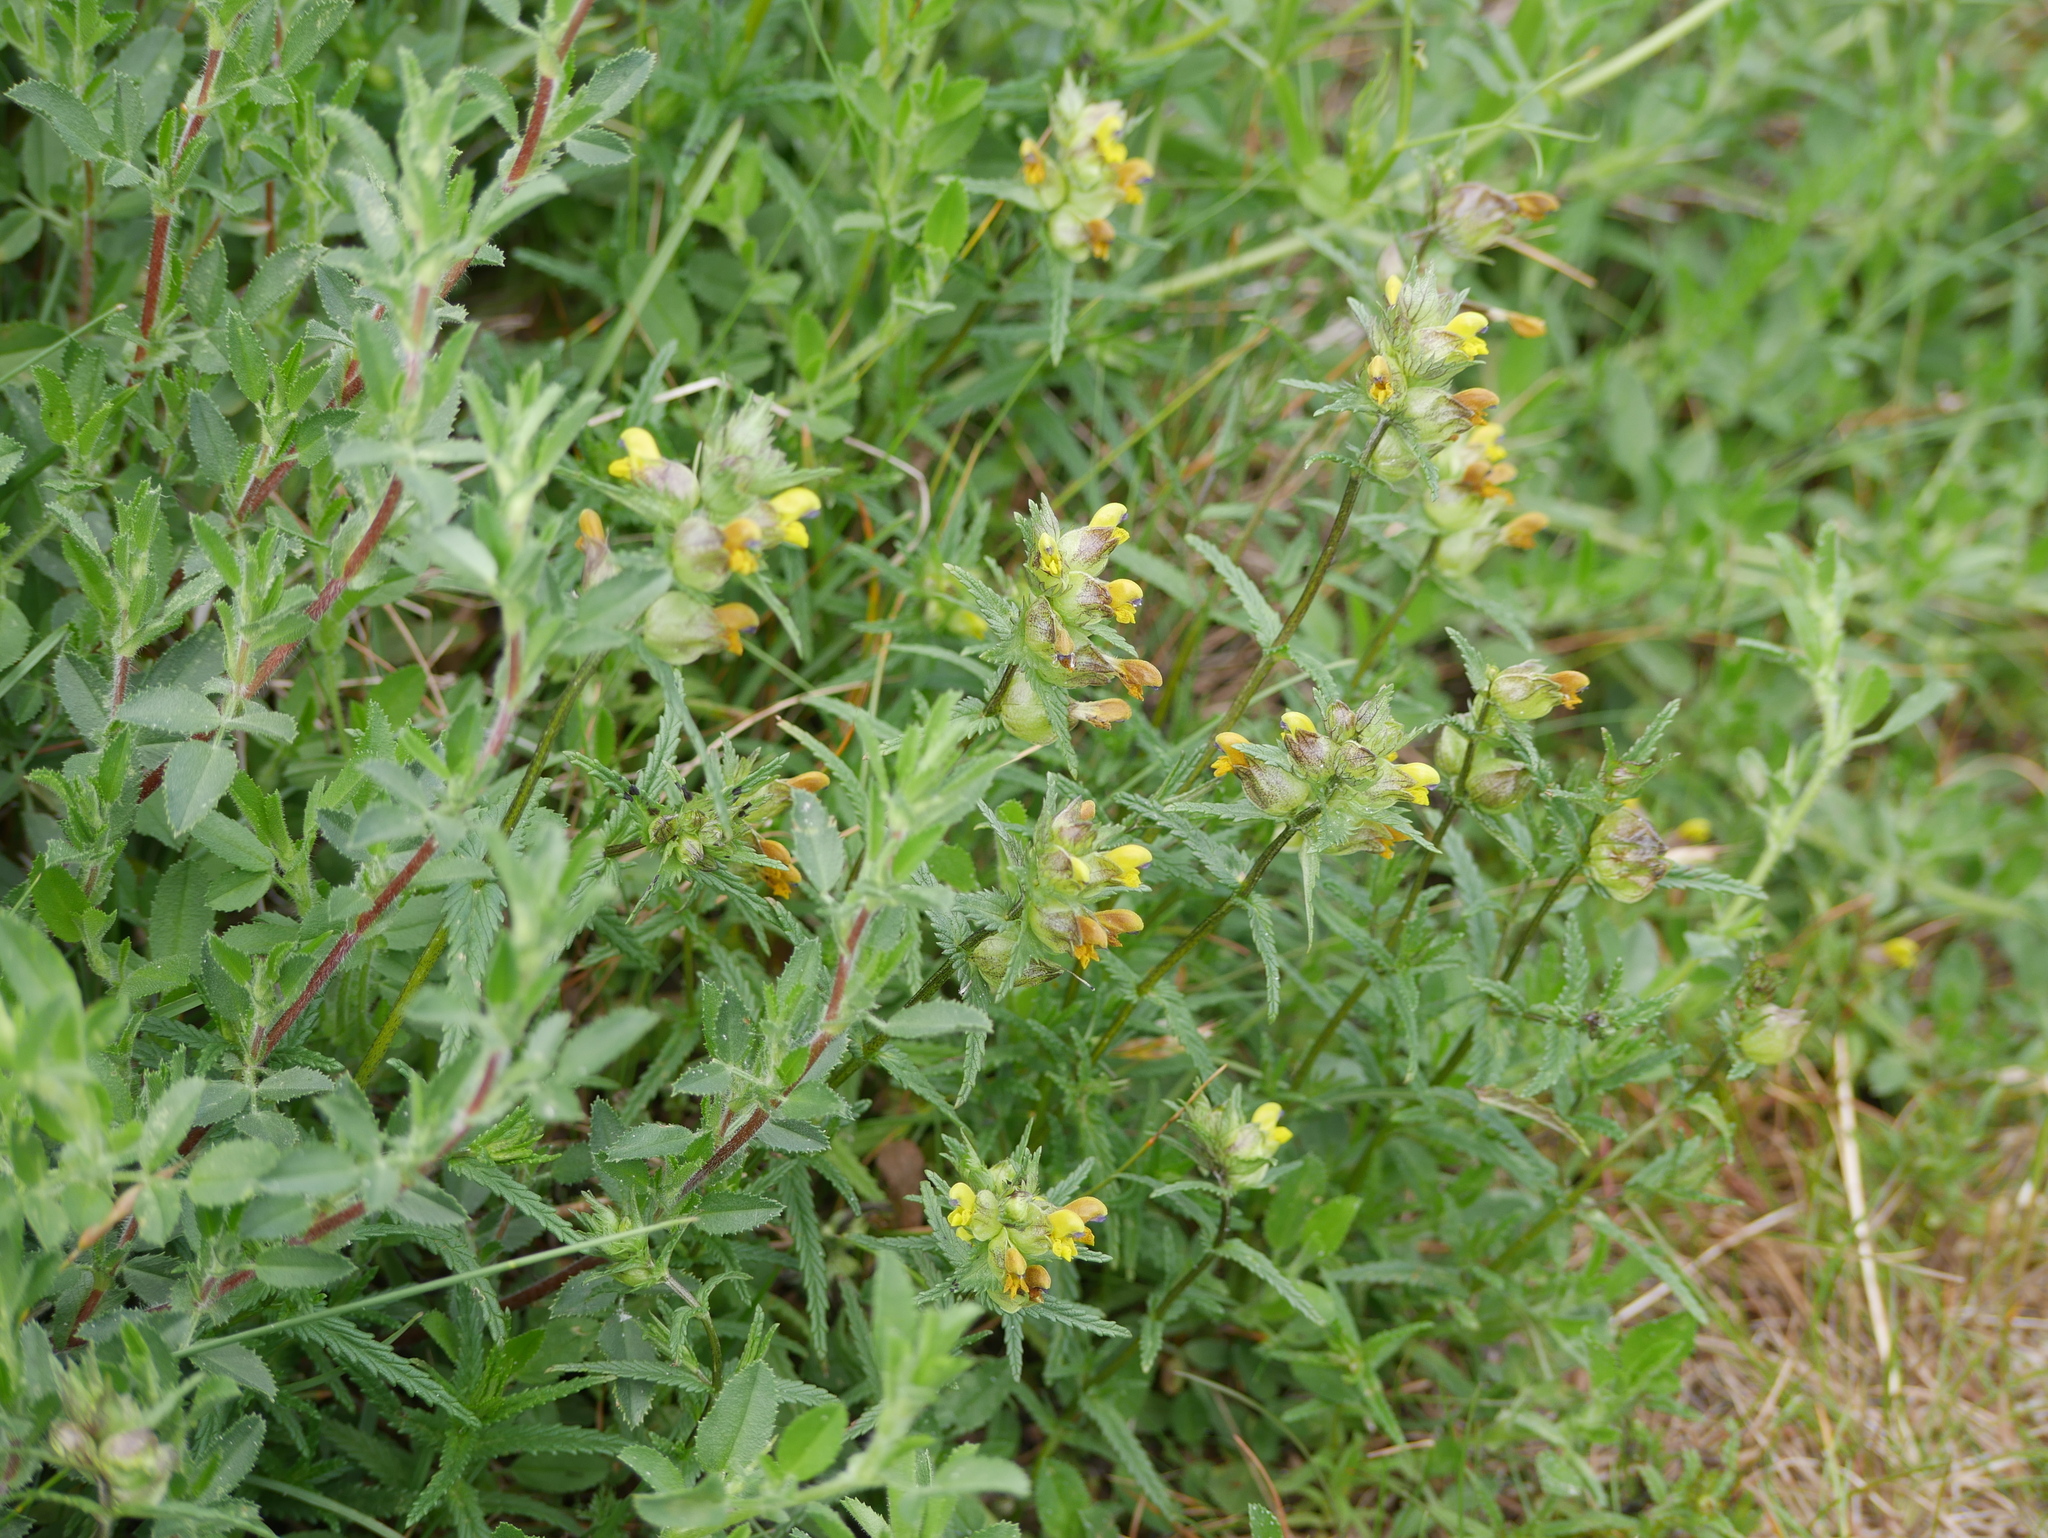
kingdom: Plantae
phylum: Tracheophyta
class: Magnoliopsida
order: Lamiales
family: Orobanchaceae
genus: Rhinanthus
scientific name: Rhinanthus minor
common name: Yellow-rattle
